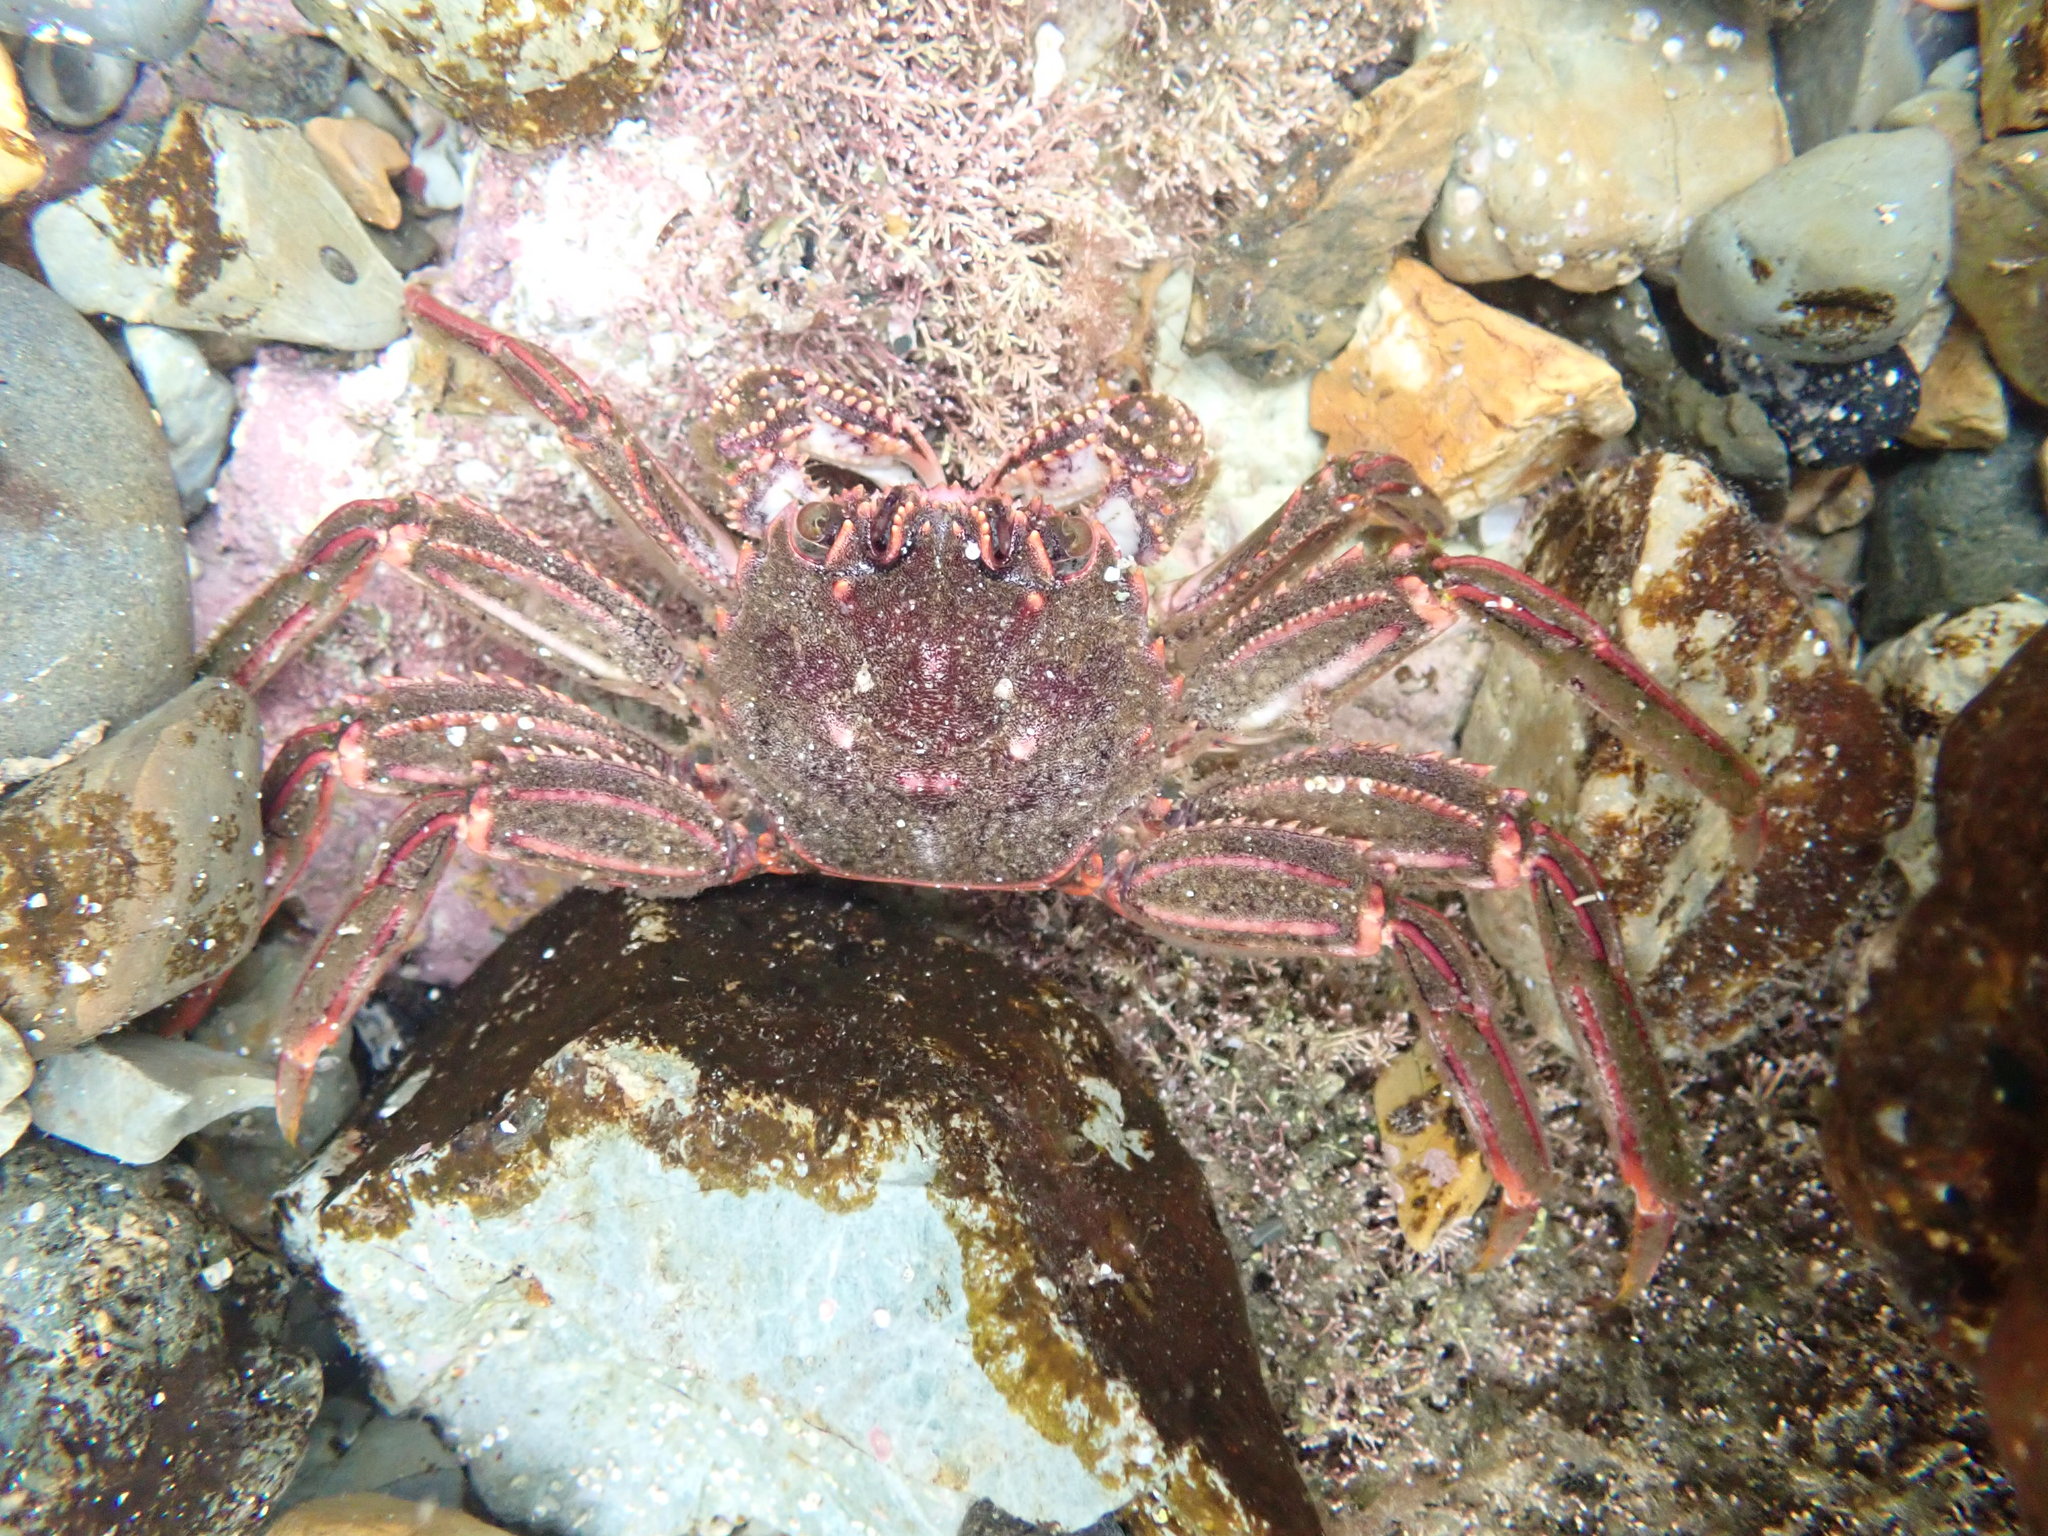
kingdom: Animalia
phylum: Arthropoda
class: Malacostraca
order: Decapoda
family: Plagusiidae
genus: Guinusia
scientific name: Guinusia chabrus
